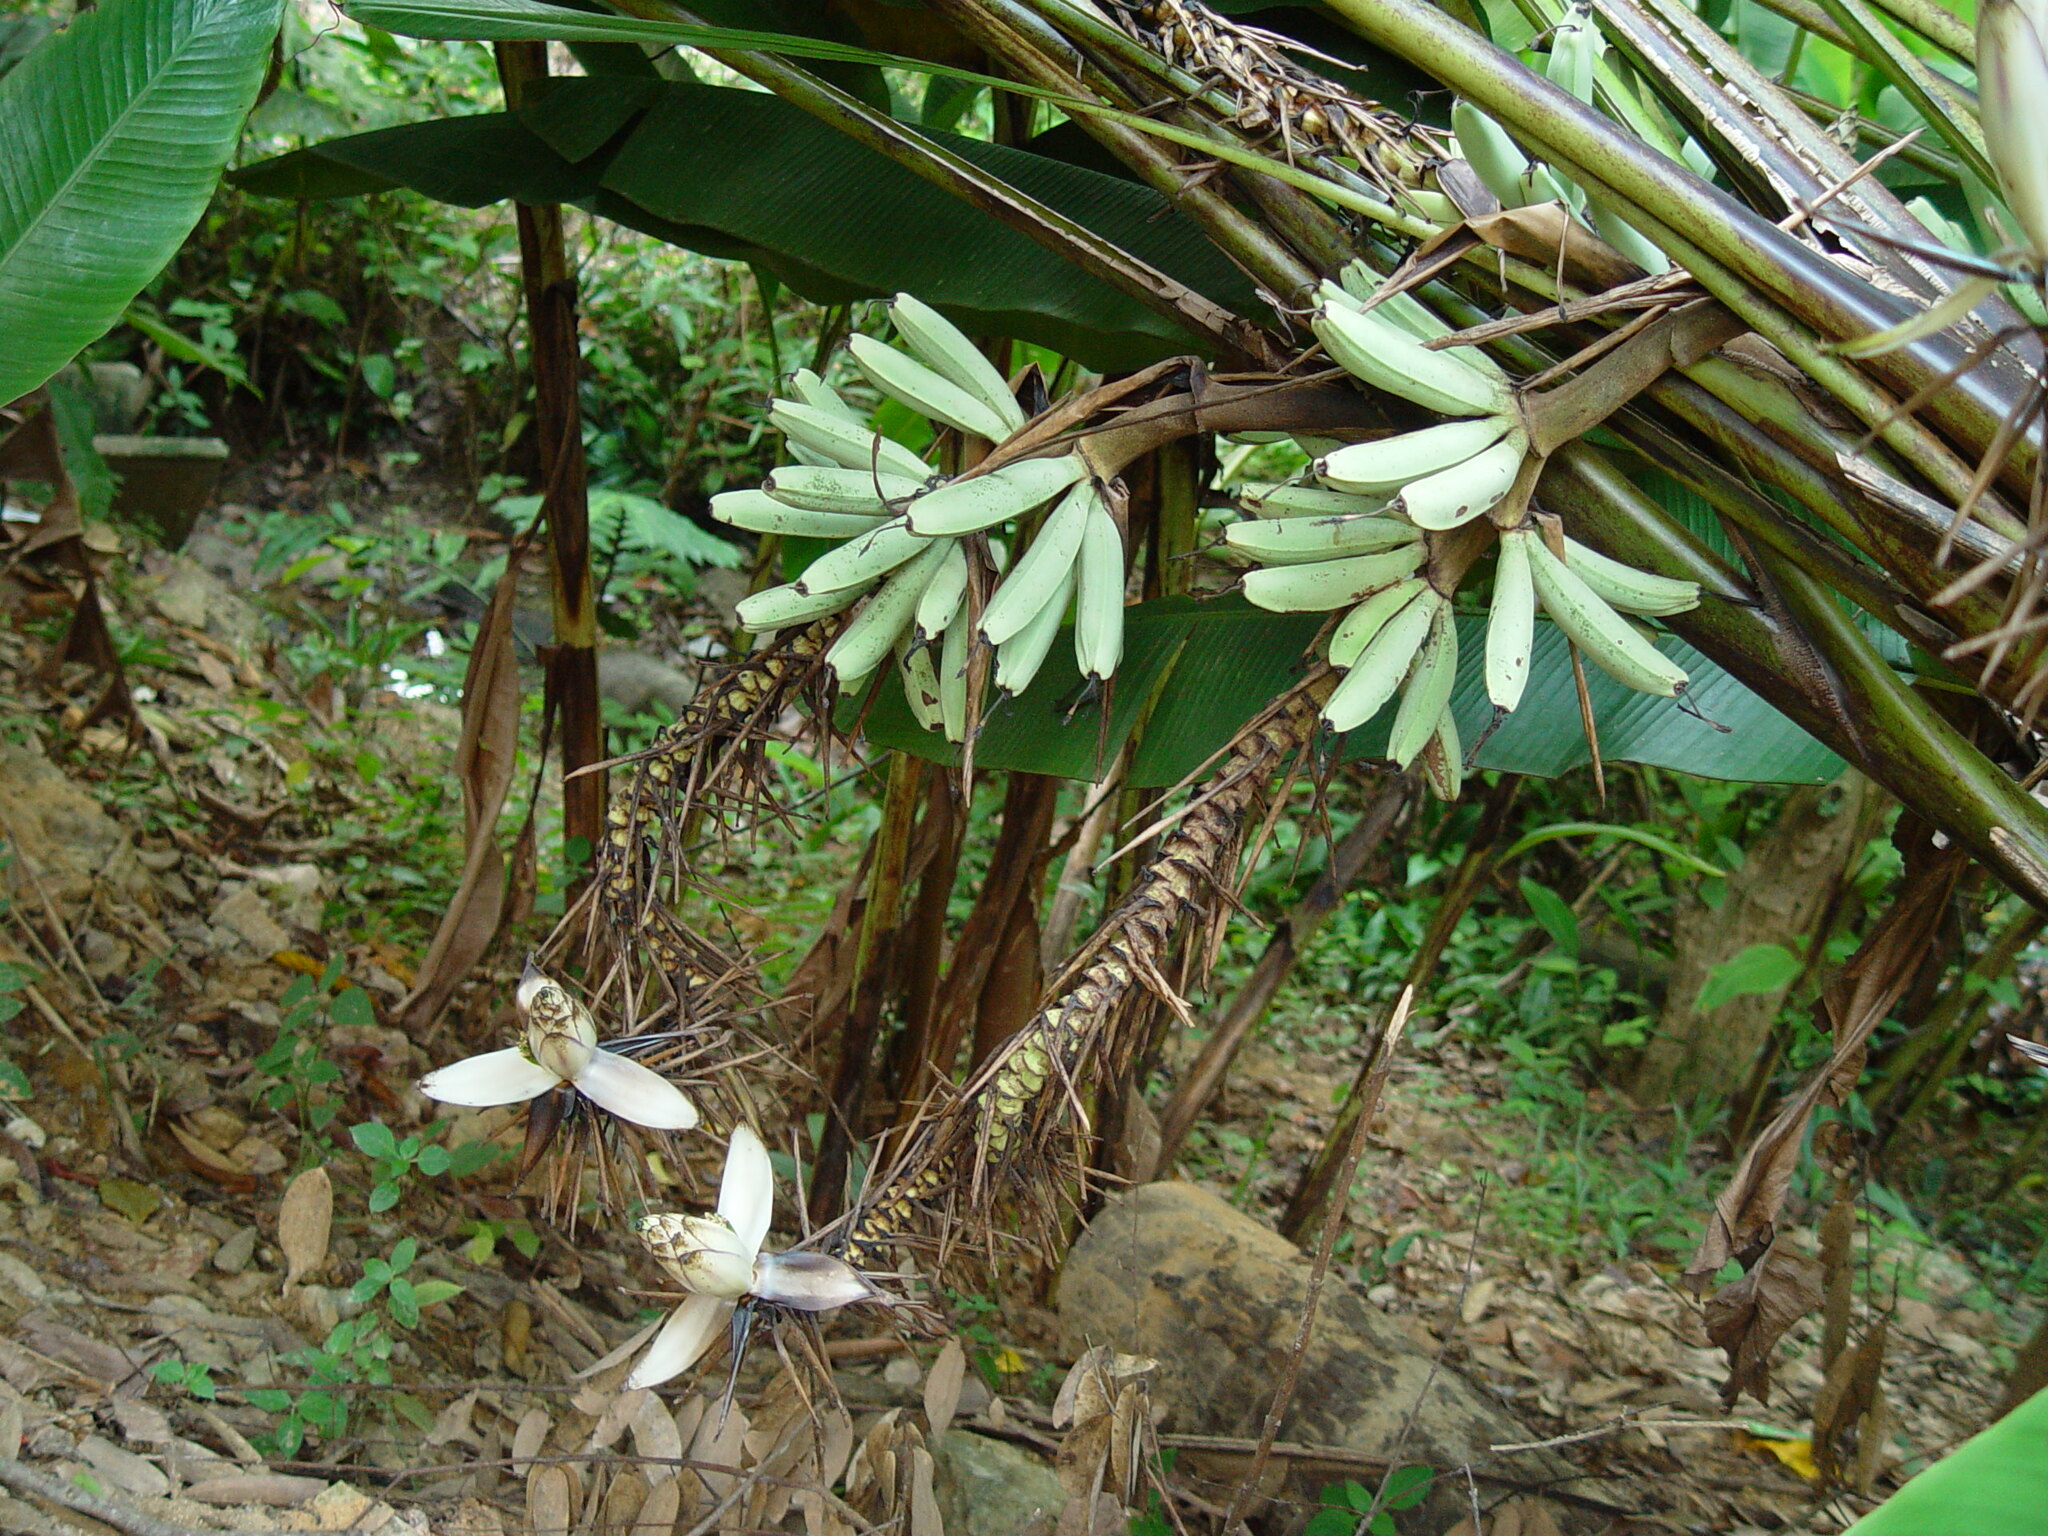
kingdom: Plantae
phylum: Tracheophyta
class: Liliopsida
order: Zingiberales
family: Musaceae
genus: Musa
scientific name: Musa gracilis
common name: Johore banana
